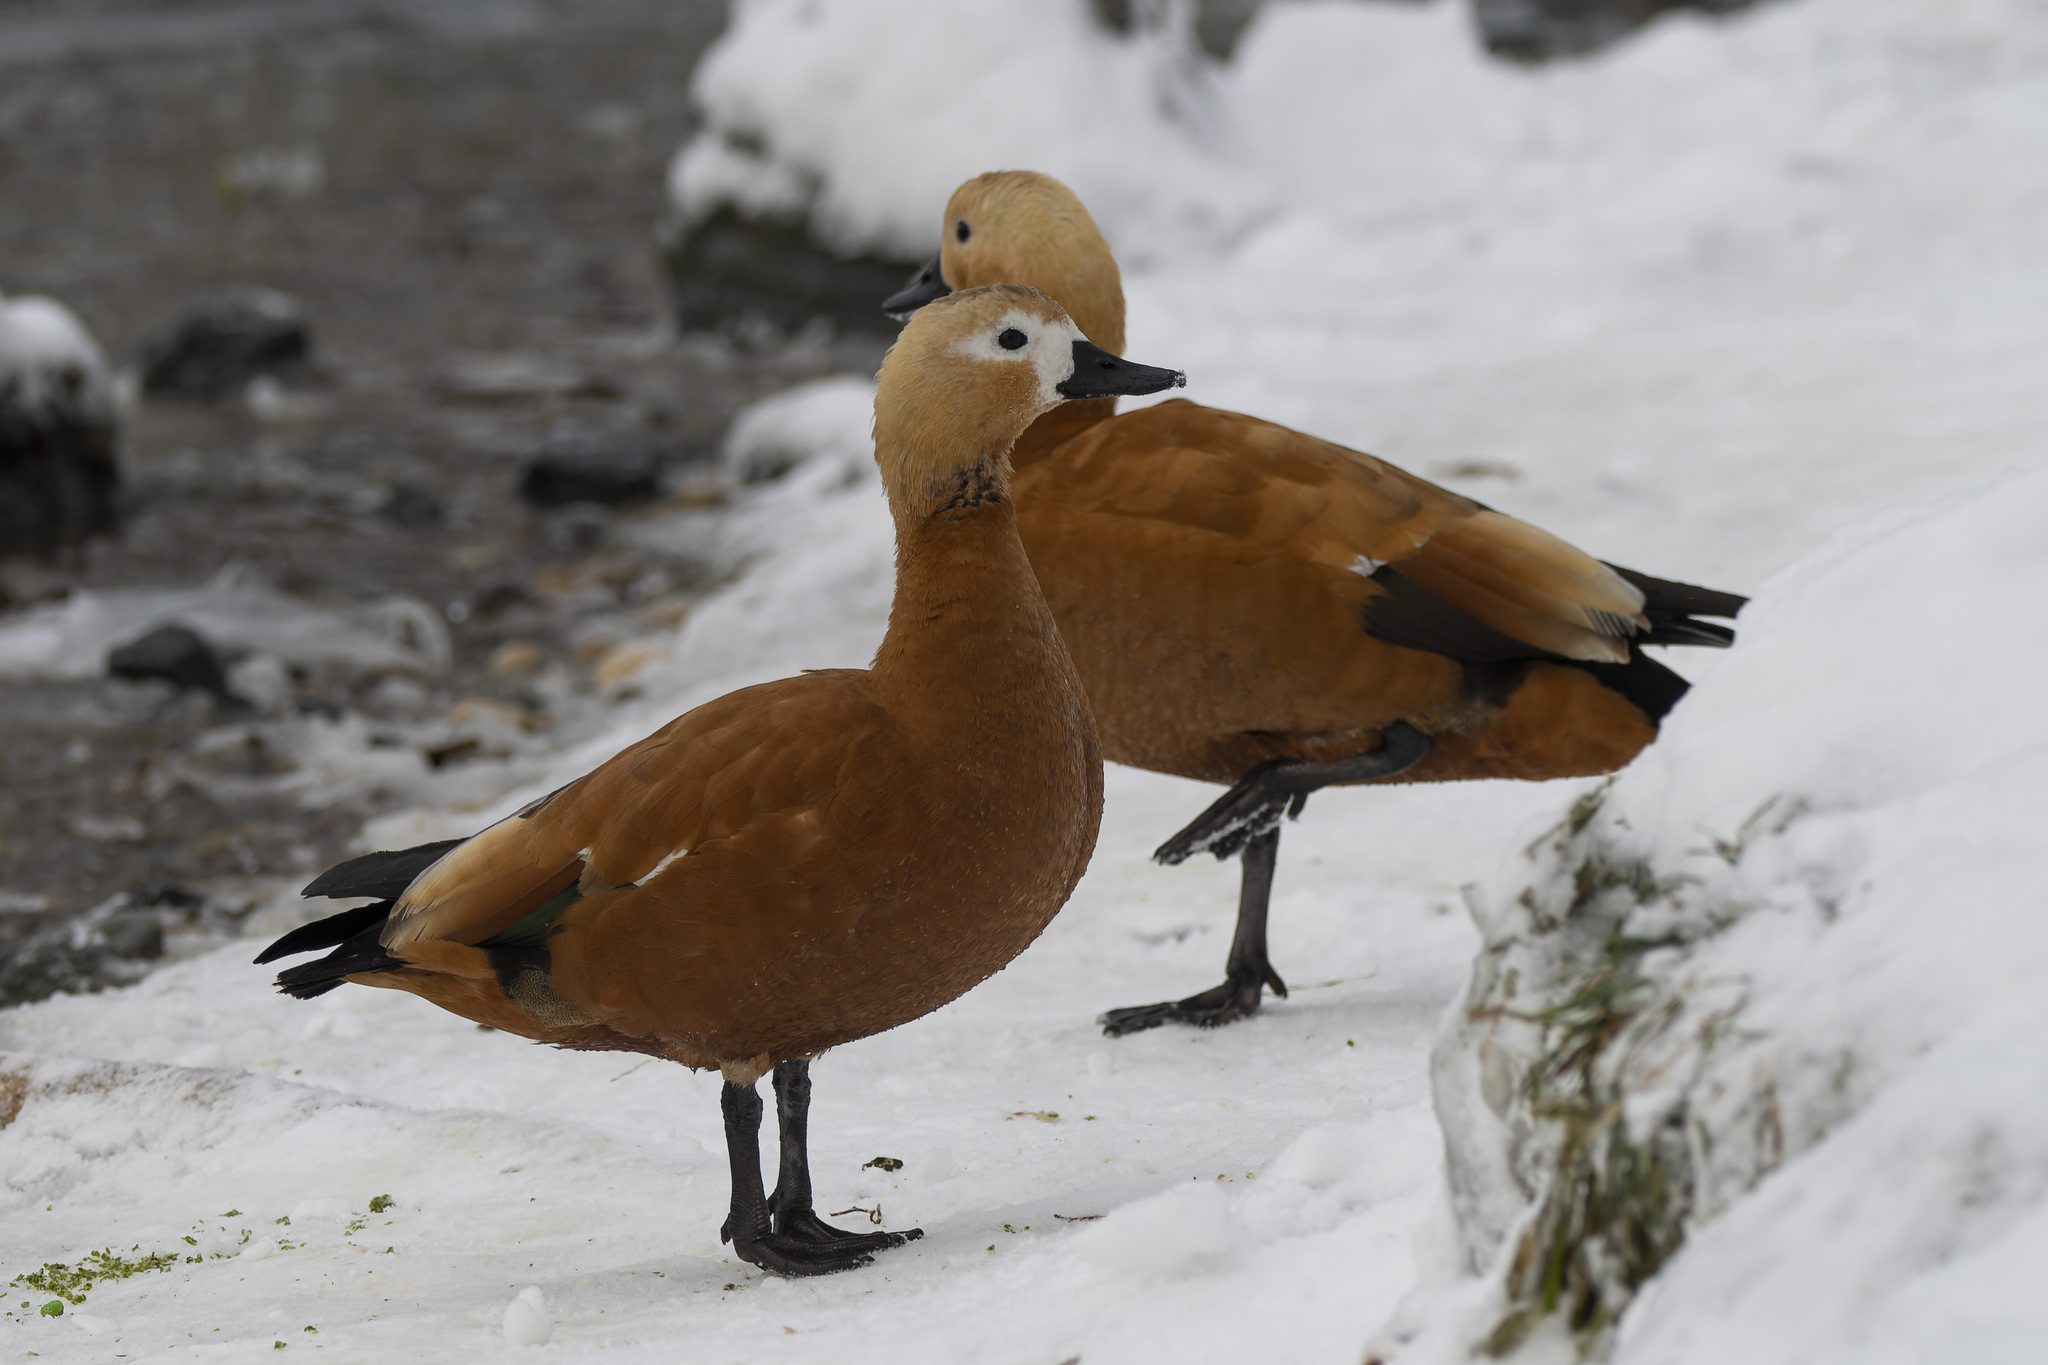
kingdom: Animalia
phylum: Chordata
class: Aves
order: Anseriformes
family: Anatidae
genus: Tadorna
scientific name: Tadorna ferruginea
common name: Ruddy shelduck
